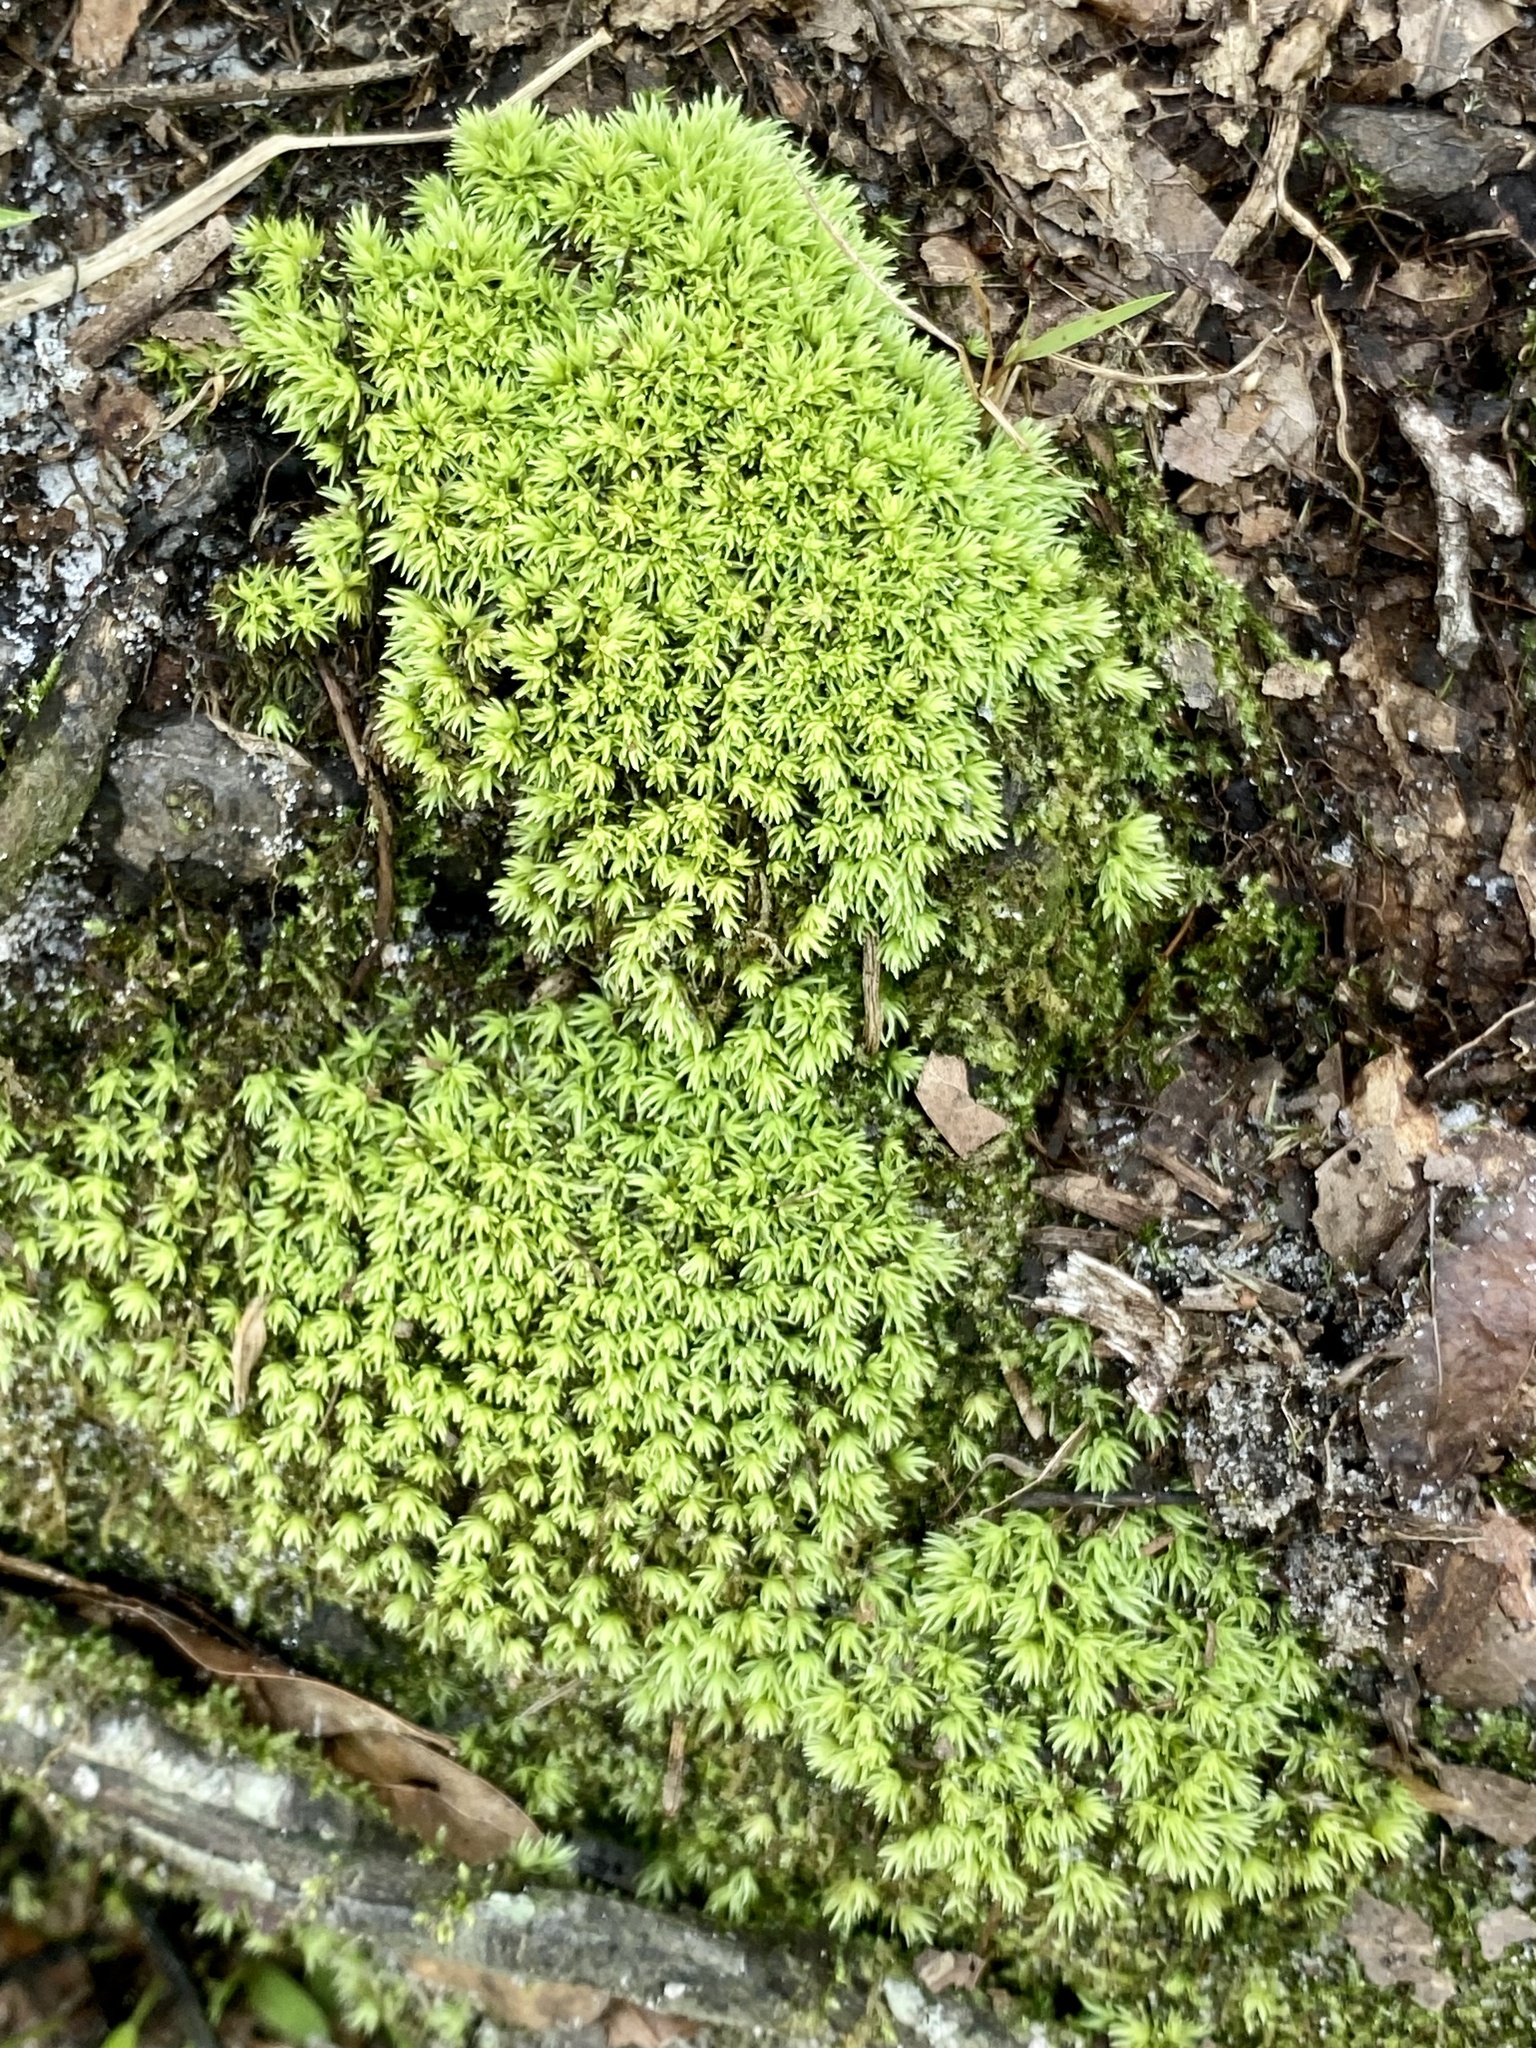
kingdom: Plantae
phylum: Bryophyta
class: Bryopsida
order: Dicranales
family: Leucobryaceae
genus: Leucobryum
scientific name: Leucobryum albidum
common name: White moss
